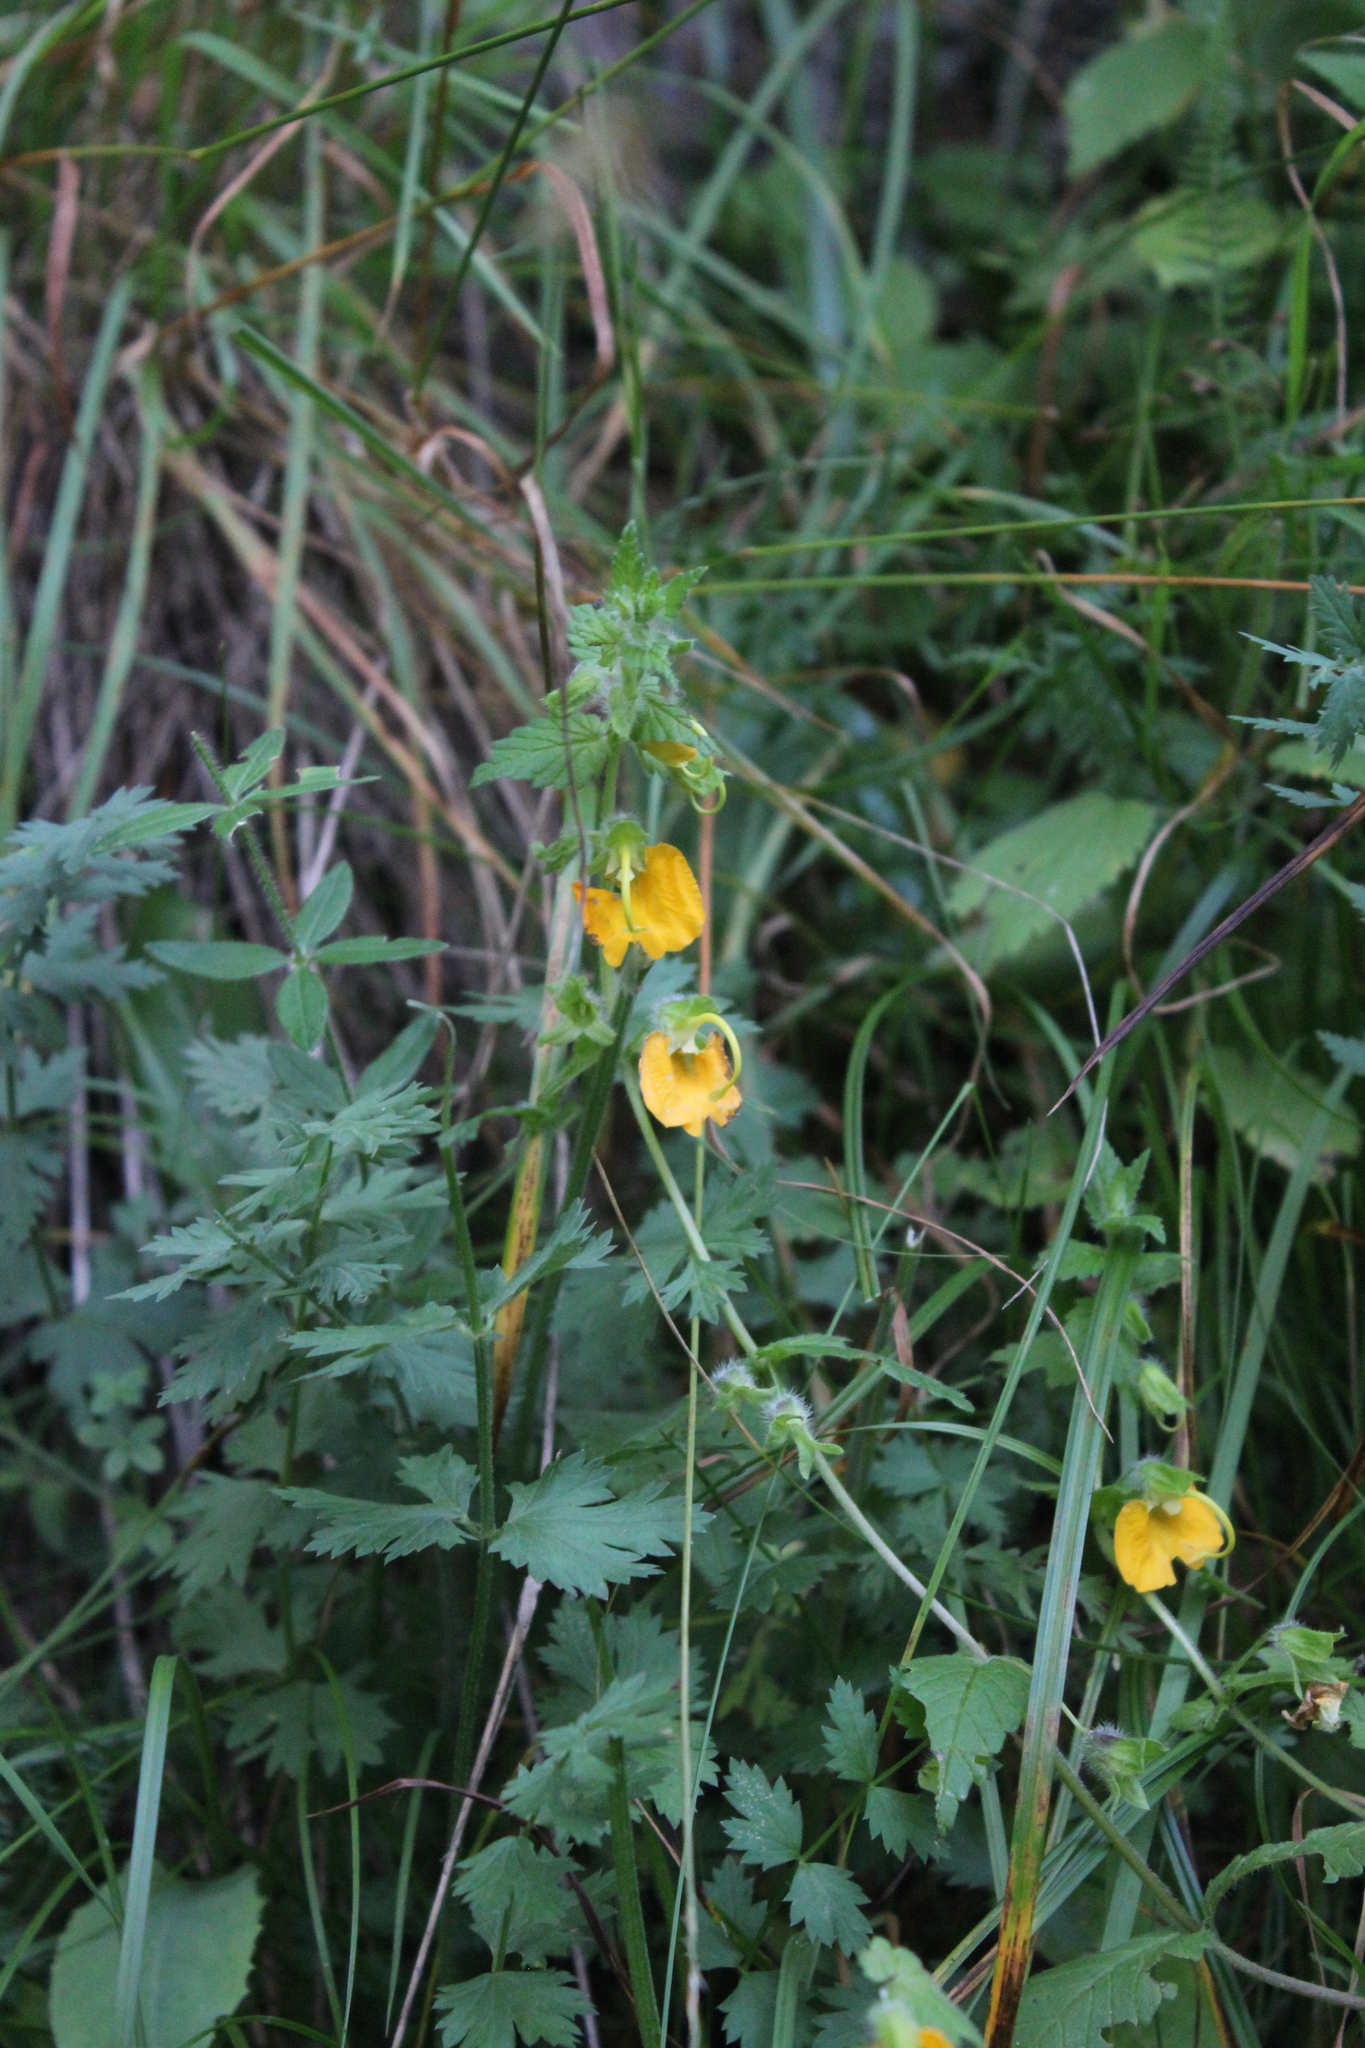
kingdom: Plantae
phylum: Tracheophyta
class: Magnoliopsida
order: Lamiales
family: Orobanchaceae
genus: Rhynchocorys
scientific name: Rhynchocorys orientalis
